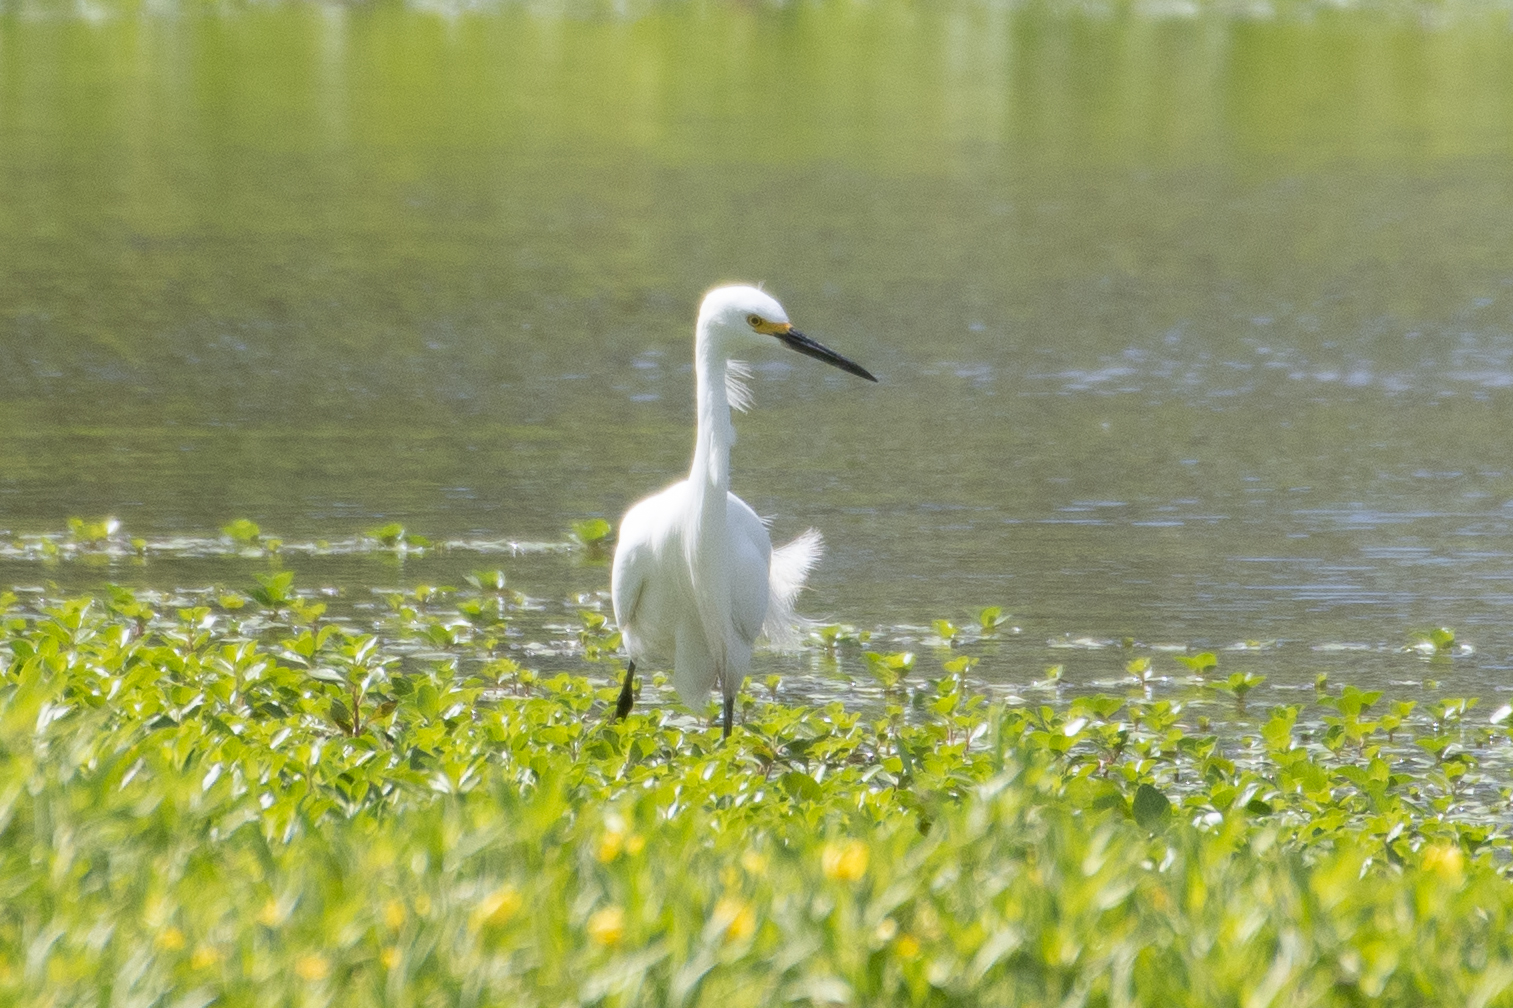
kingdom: Animalia
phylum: Chordata
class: Aves
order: Pelecaniformes
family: Ardeidae
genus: Egretta
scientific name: Egretta thula
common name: Snowy egret
